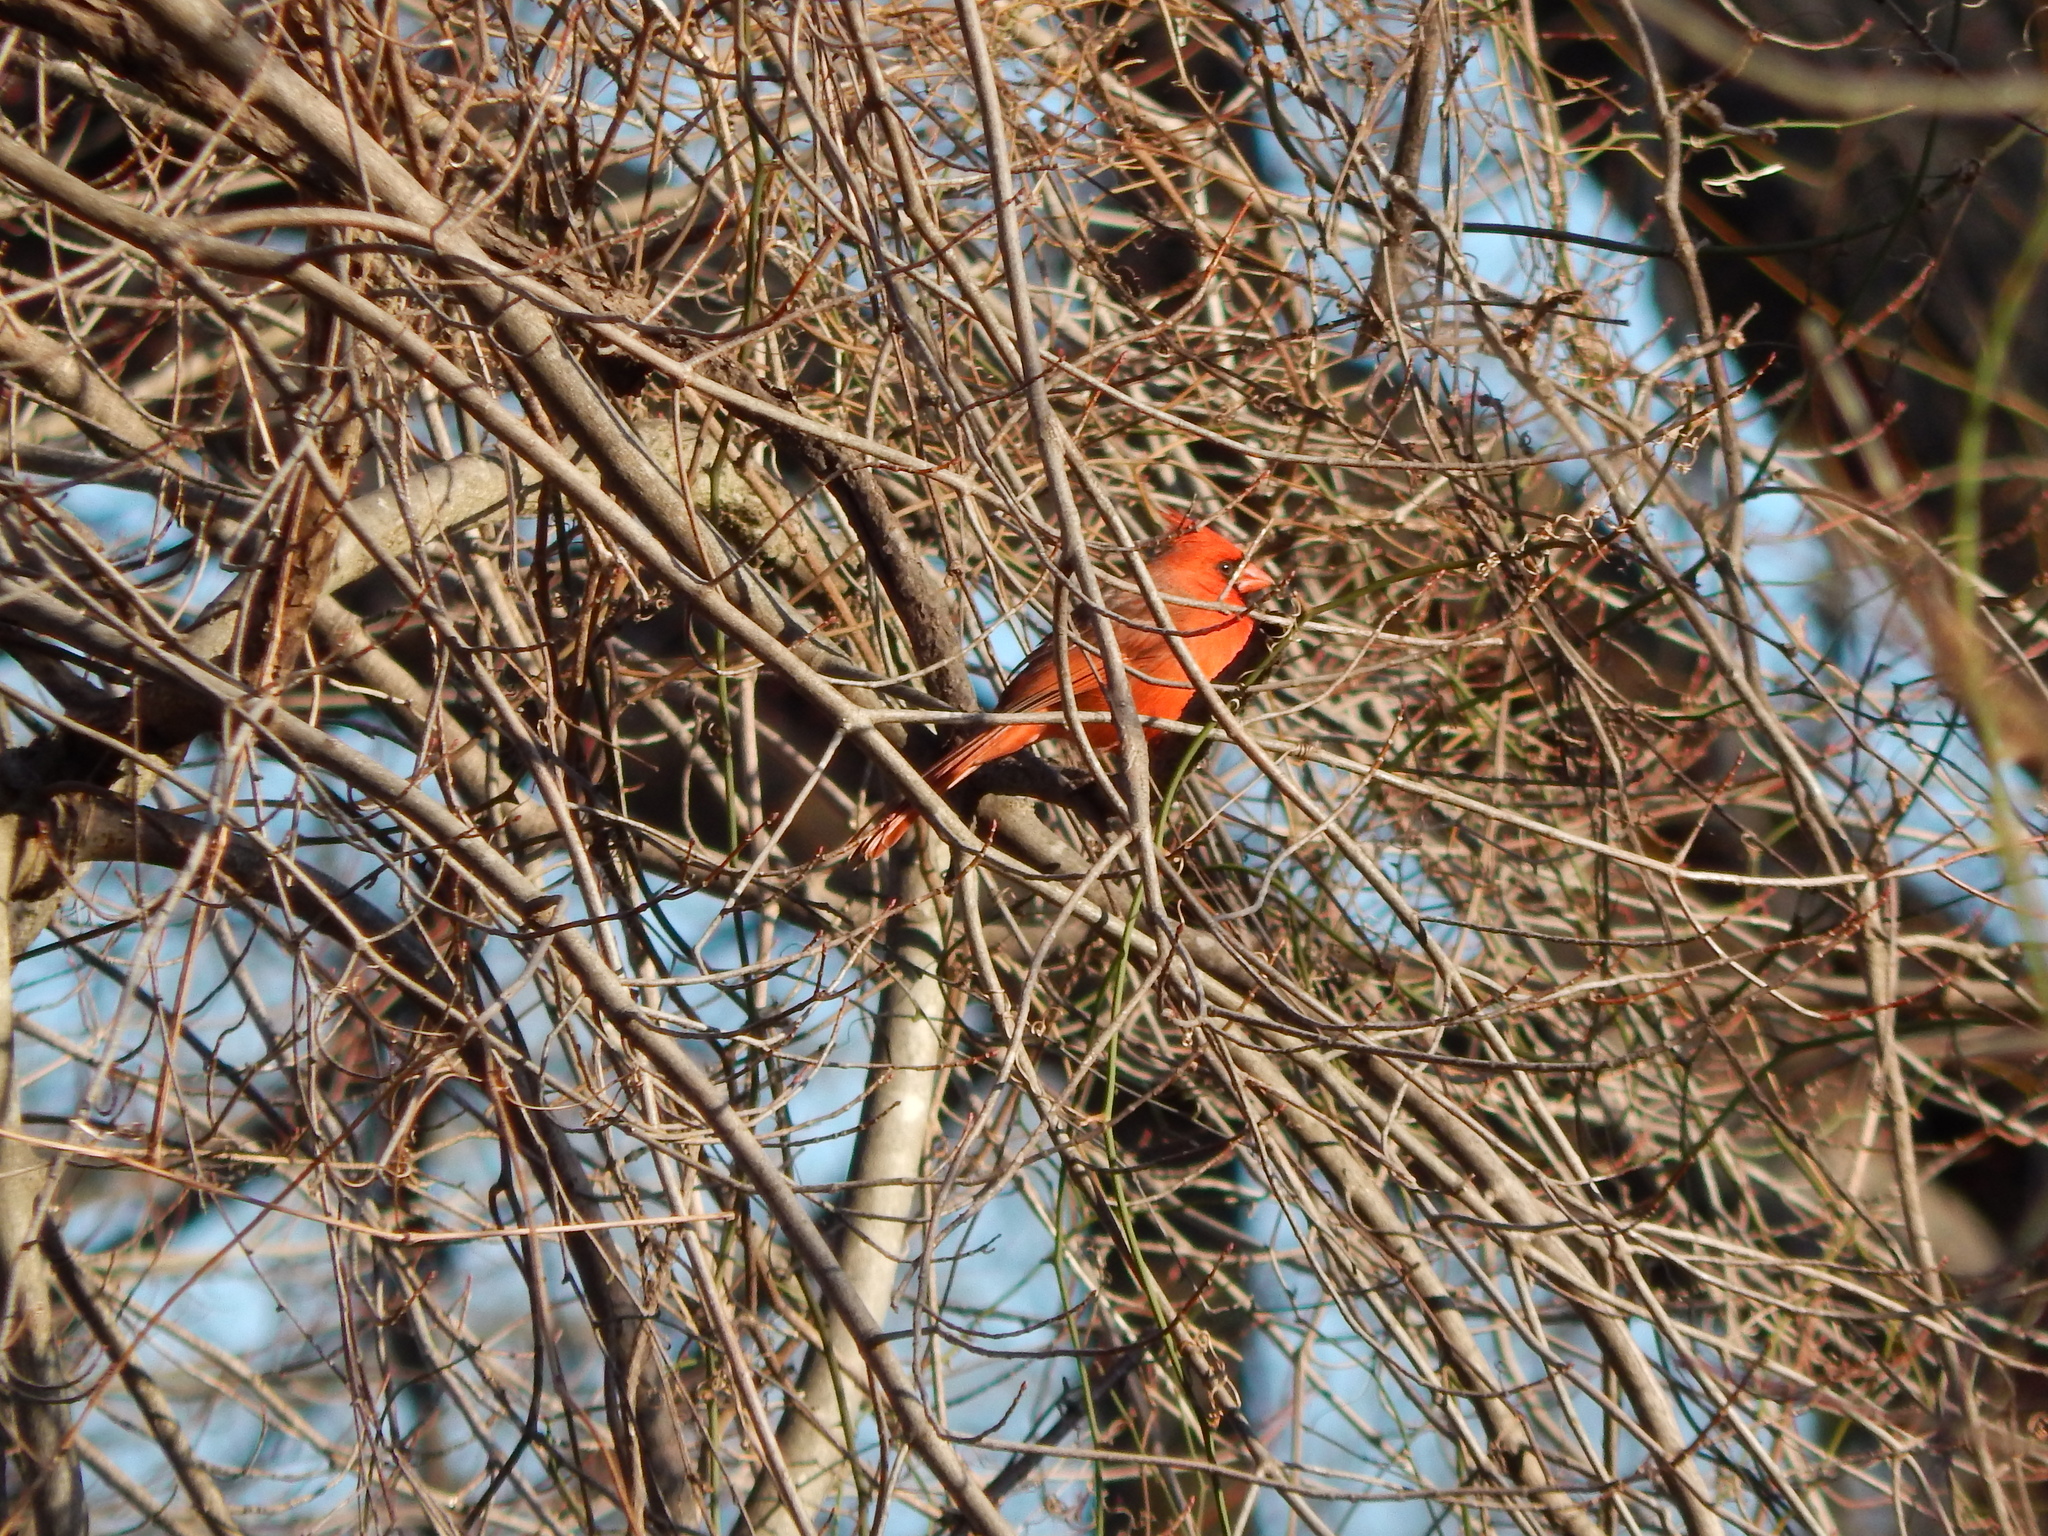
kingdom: Animalia
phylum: Chordata
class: Aves
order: Passeriformes
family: Cardinalidae
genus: Cardinalis
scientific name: Cardinalis cardinalis
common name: Northern cardinal
